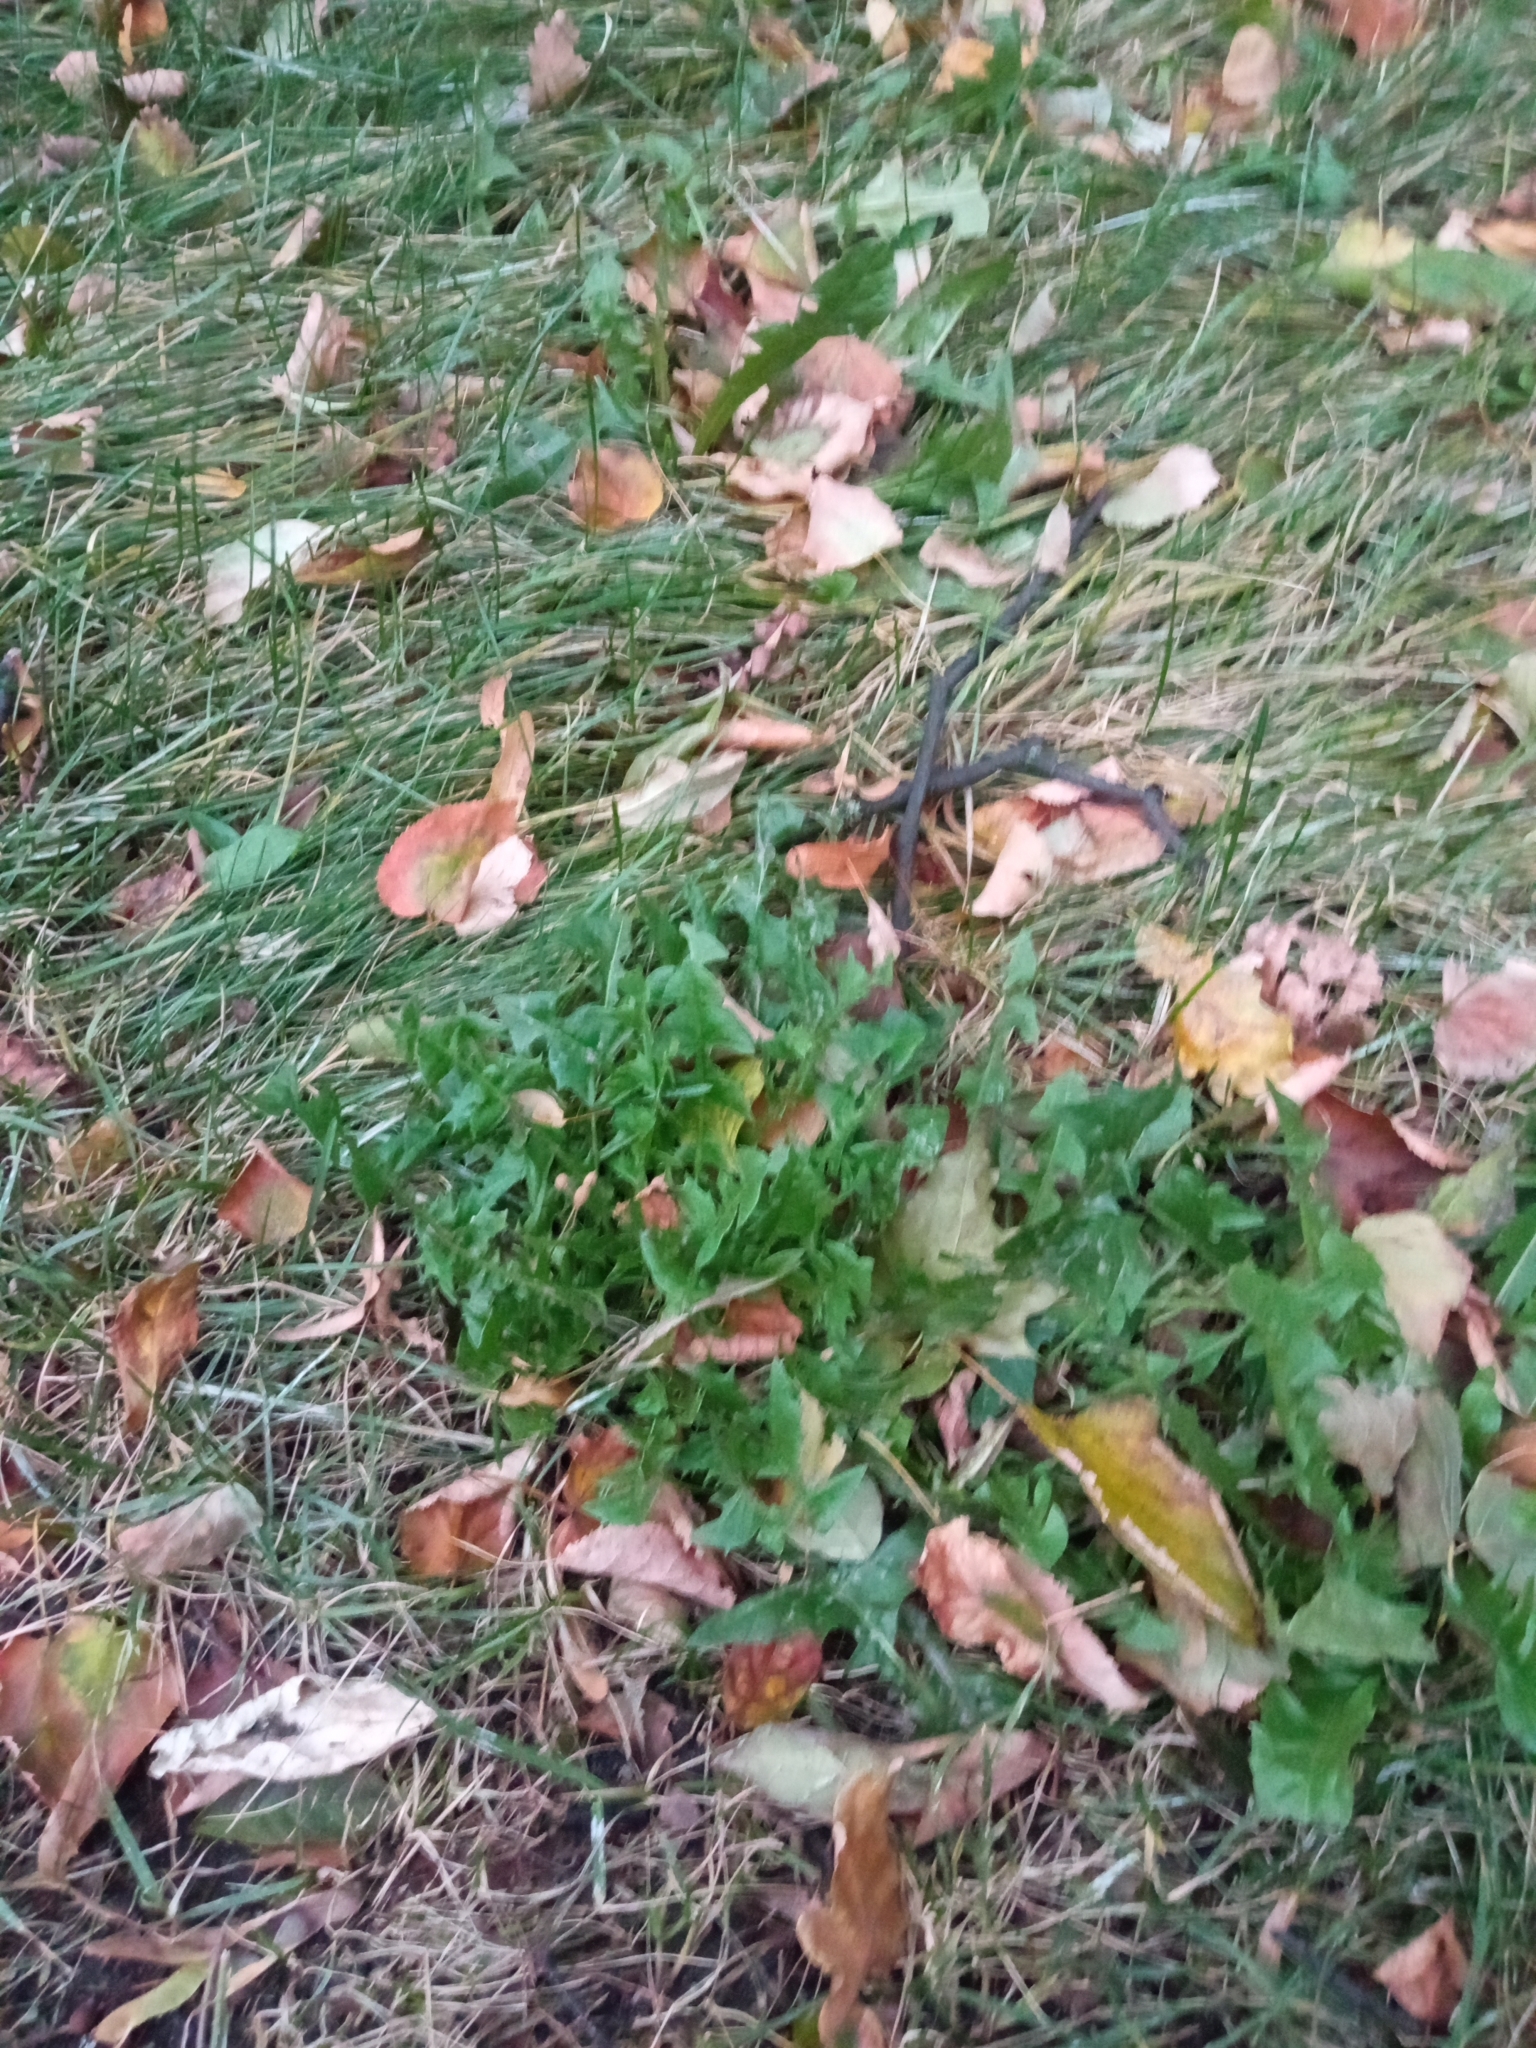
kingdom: Plantae
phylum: Tracheophyta
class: Magnoliopsida
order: Asterales
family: Asteraceae
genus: Taraxacum
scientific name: Taraxacum officinale
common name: Common dandelion
